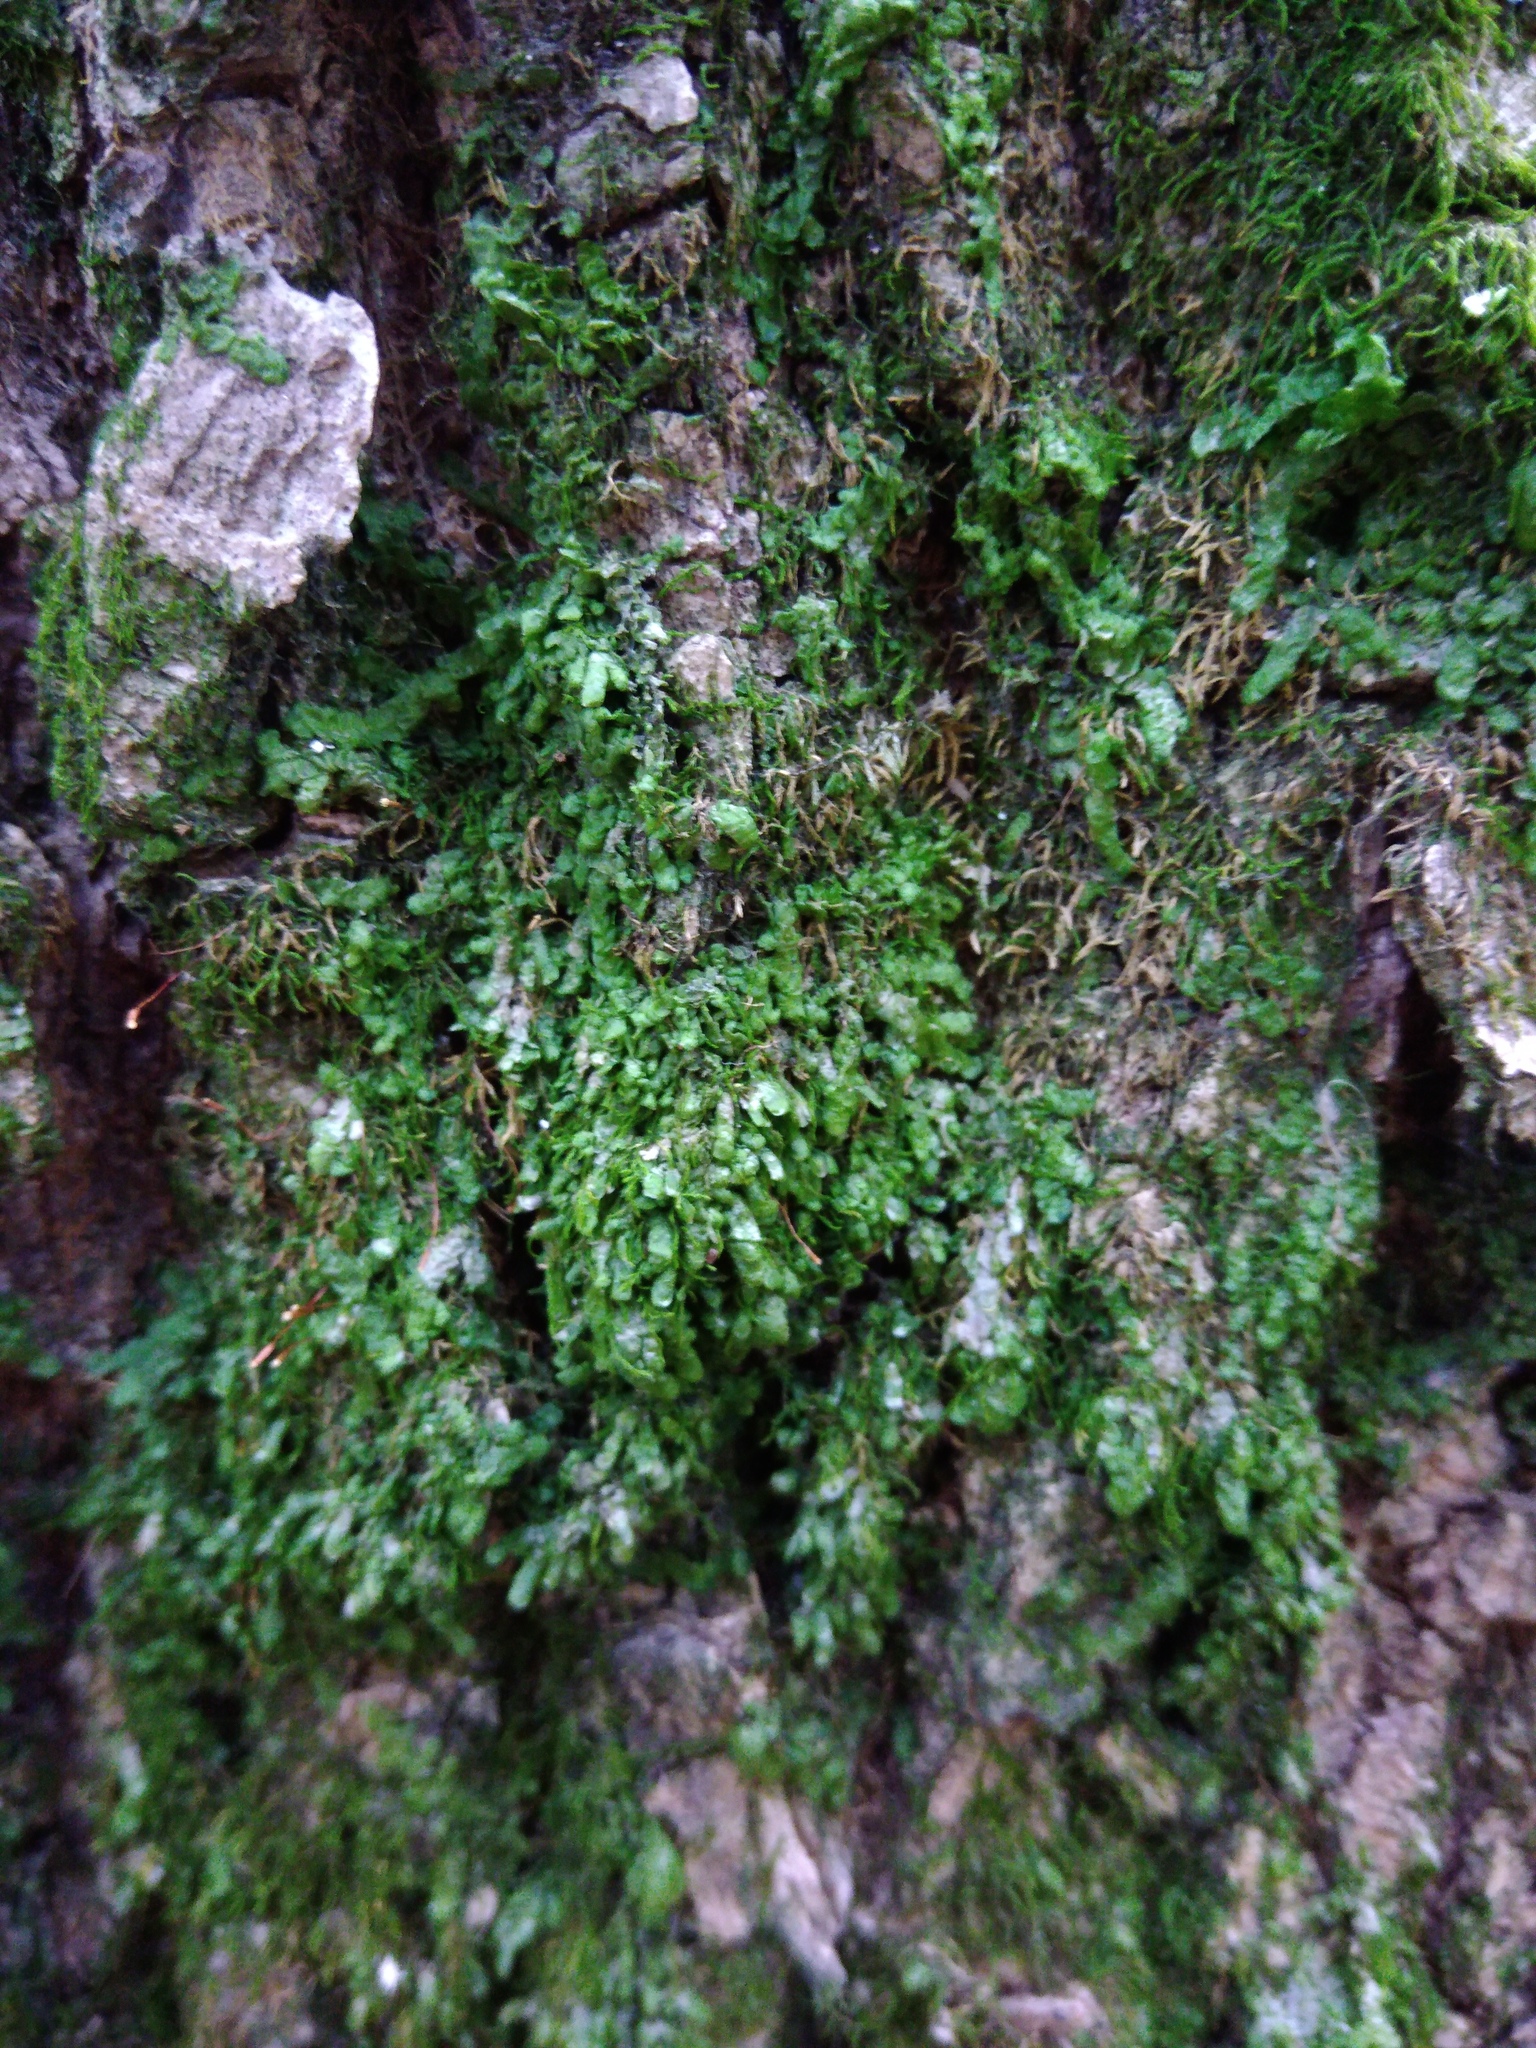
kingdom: Plantae
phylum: Marchantiophyta
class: Jungermanniopsida
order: Porellales
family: Radulaceae
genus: Radula
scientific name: Radula complanata
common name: Flat-leaved scalewort
